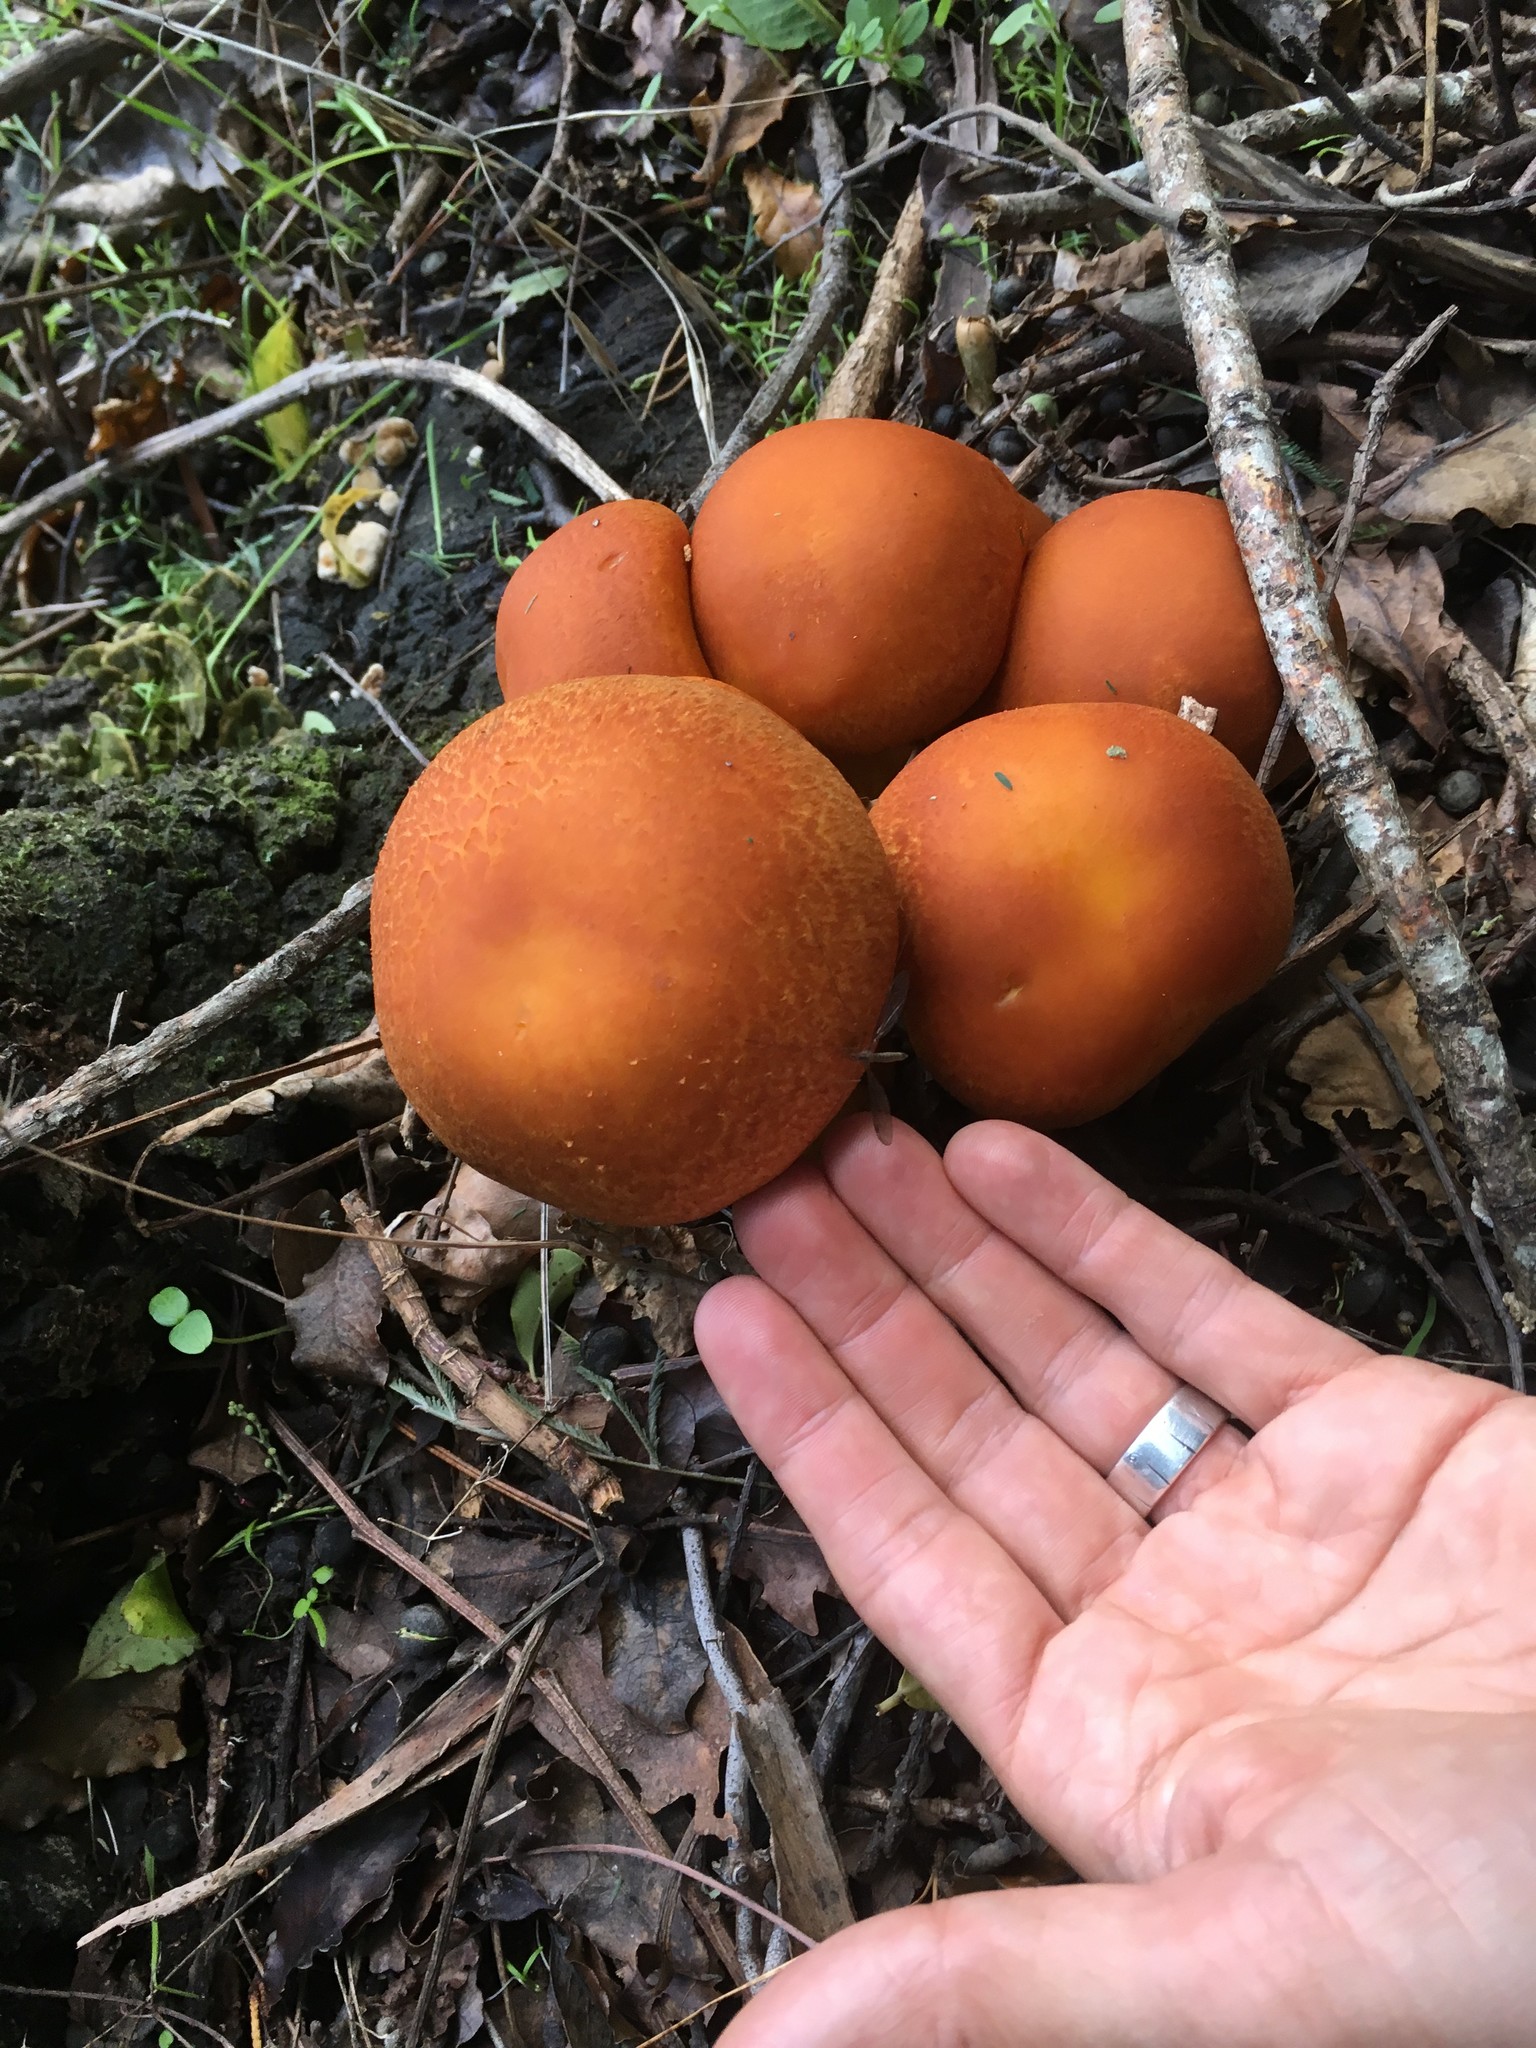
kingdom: Fungi
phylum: Basidiomycota
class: Agaricomycetes
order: Agaricales
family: Hymenogastraceae
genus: Gymnopilus
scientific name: Gymnopilus junonius
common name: Spectacular rustgill
